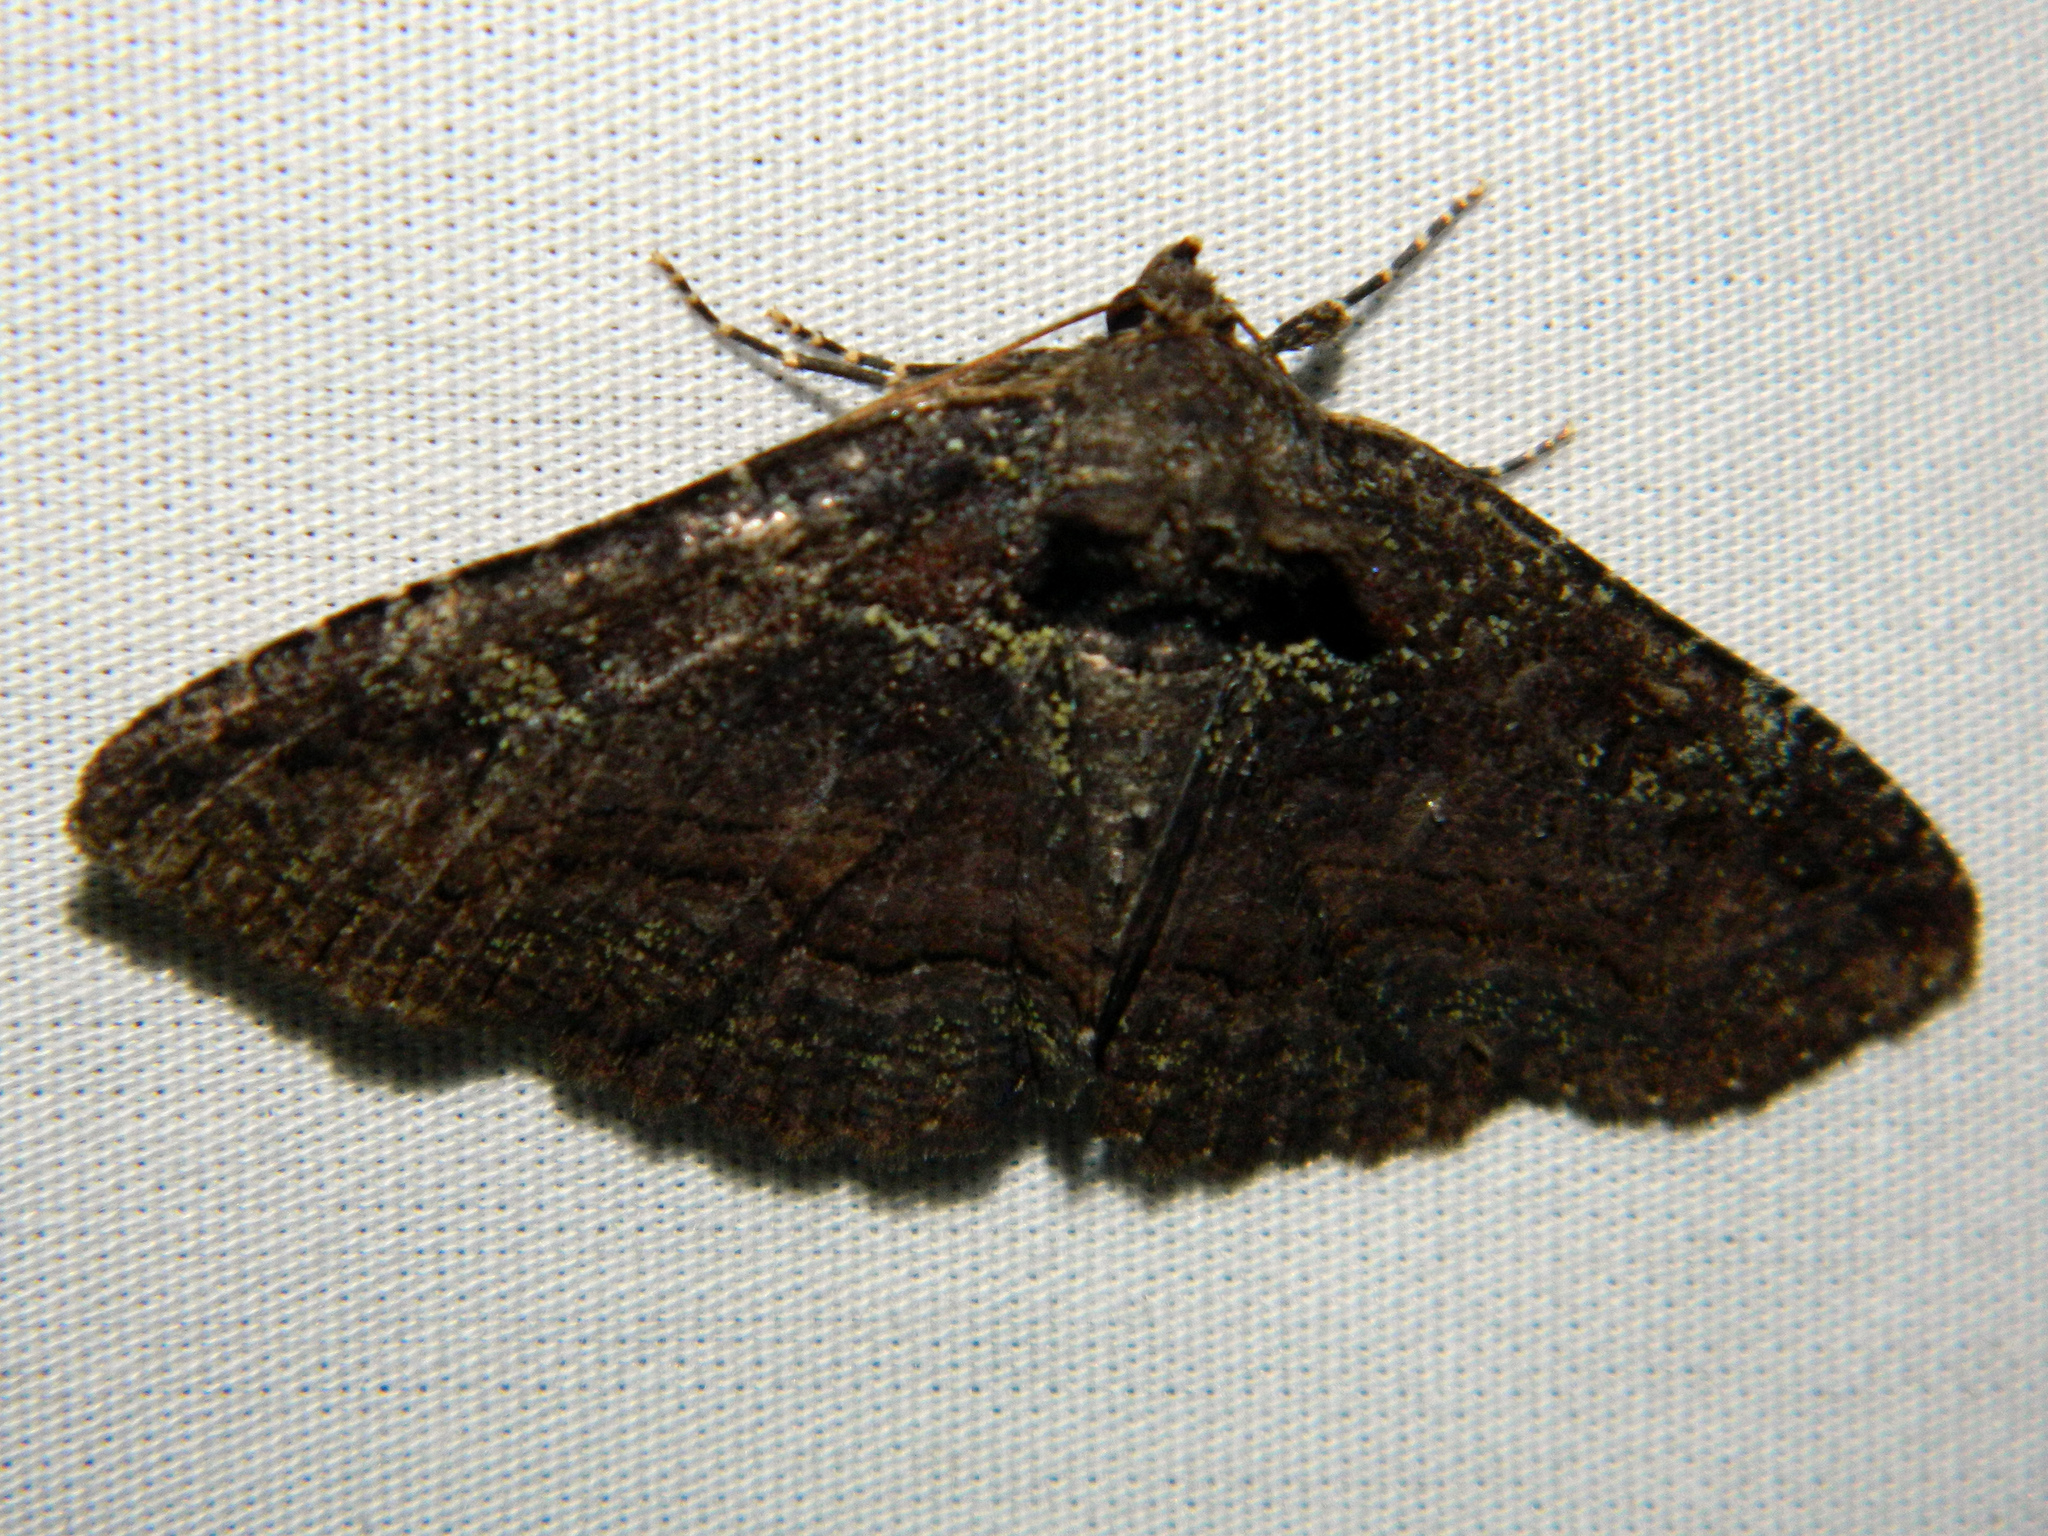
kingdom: Animalia
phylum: Arthropoda
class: Insecta
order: Lepidoptera
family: Erebidae
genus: Zale
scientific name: Zale aeruginosa
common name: Green-dusted zale moth
